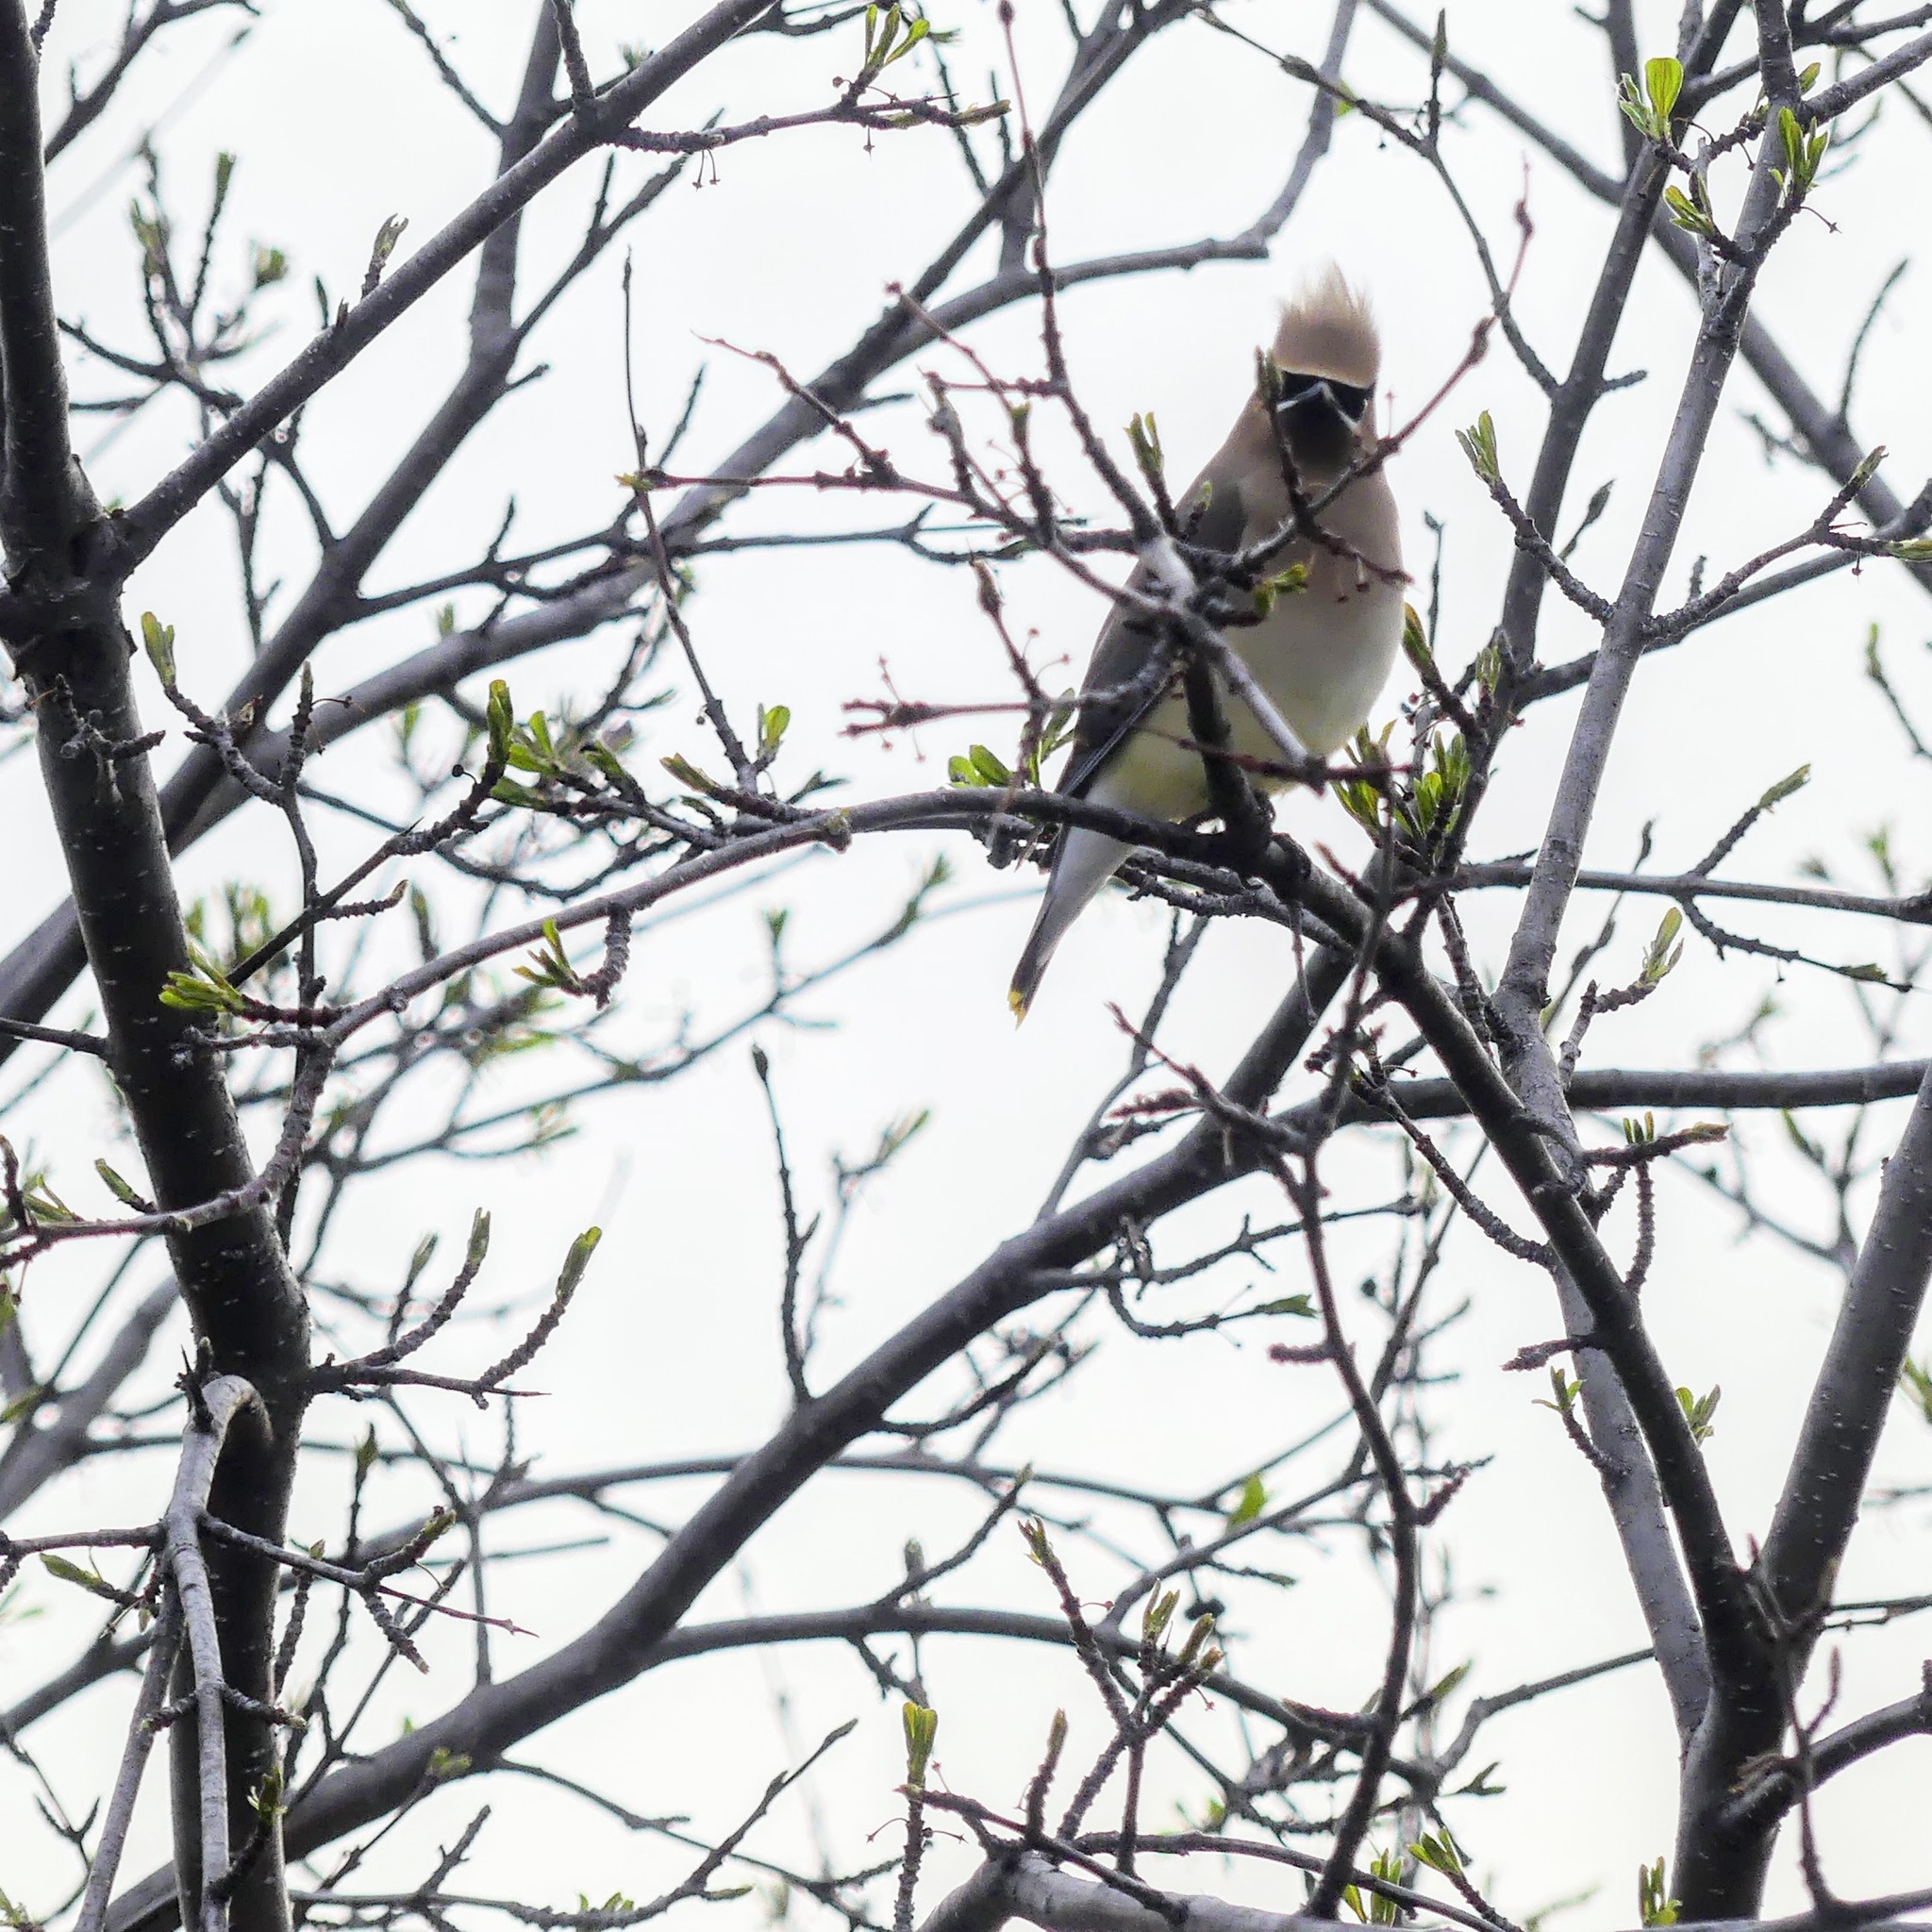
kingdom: Animalia
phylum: Chordata
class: Aves
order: Passeriformes
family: Bombycillidae
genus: Bombycilla
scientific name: Bombycilla cedrorum
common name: Cedar waxwing
